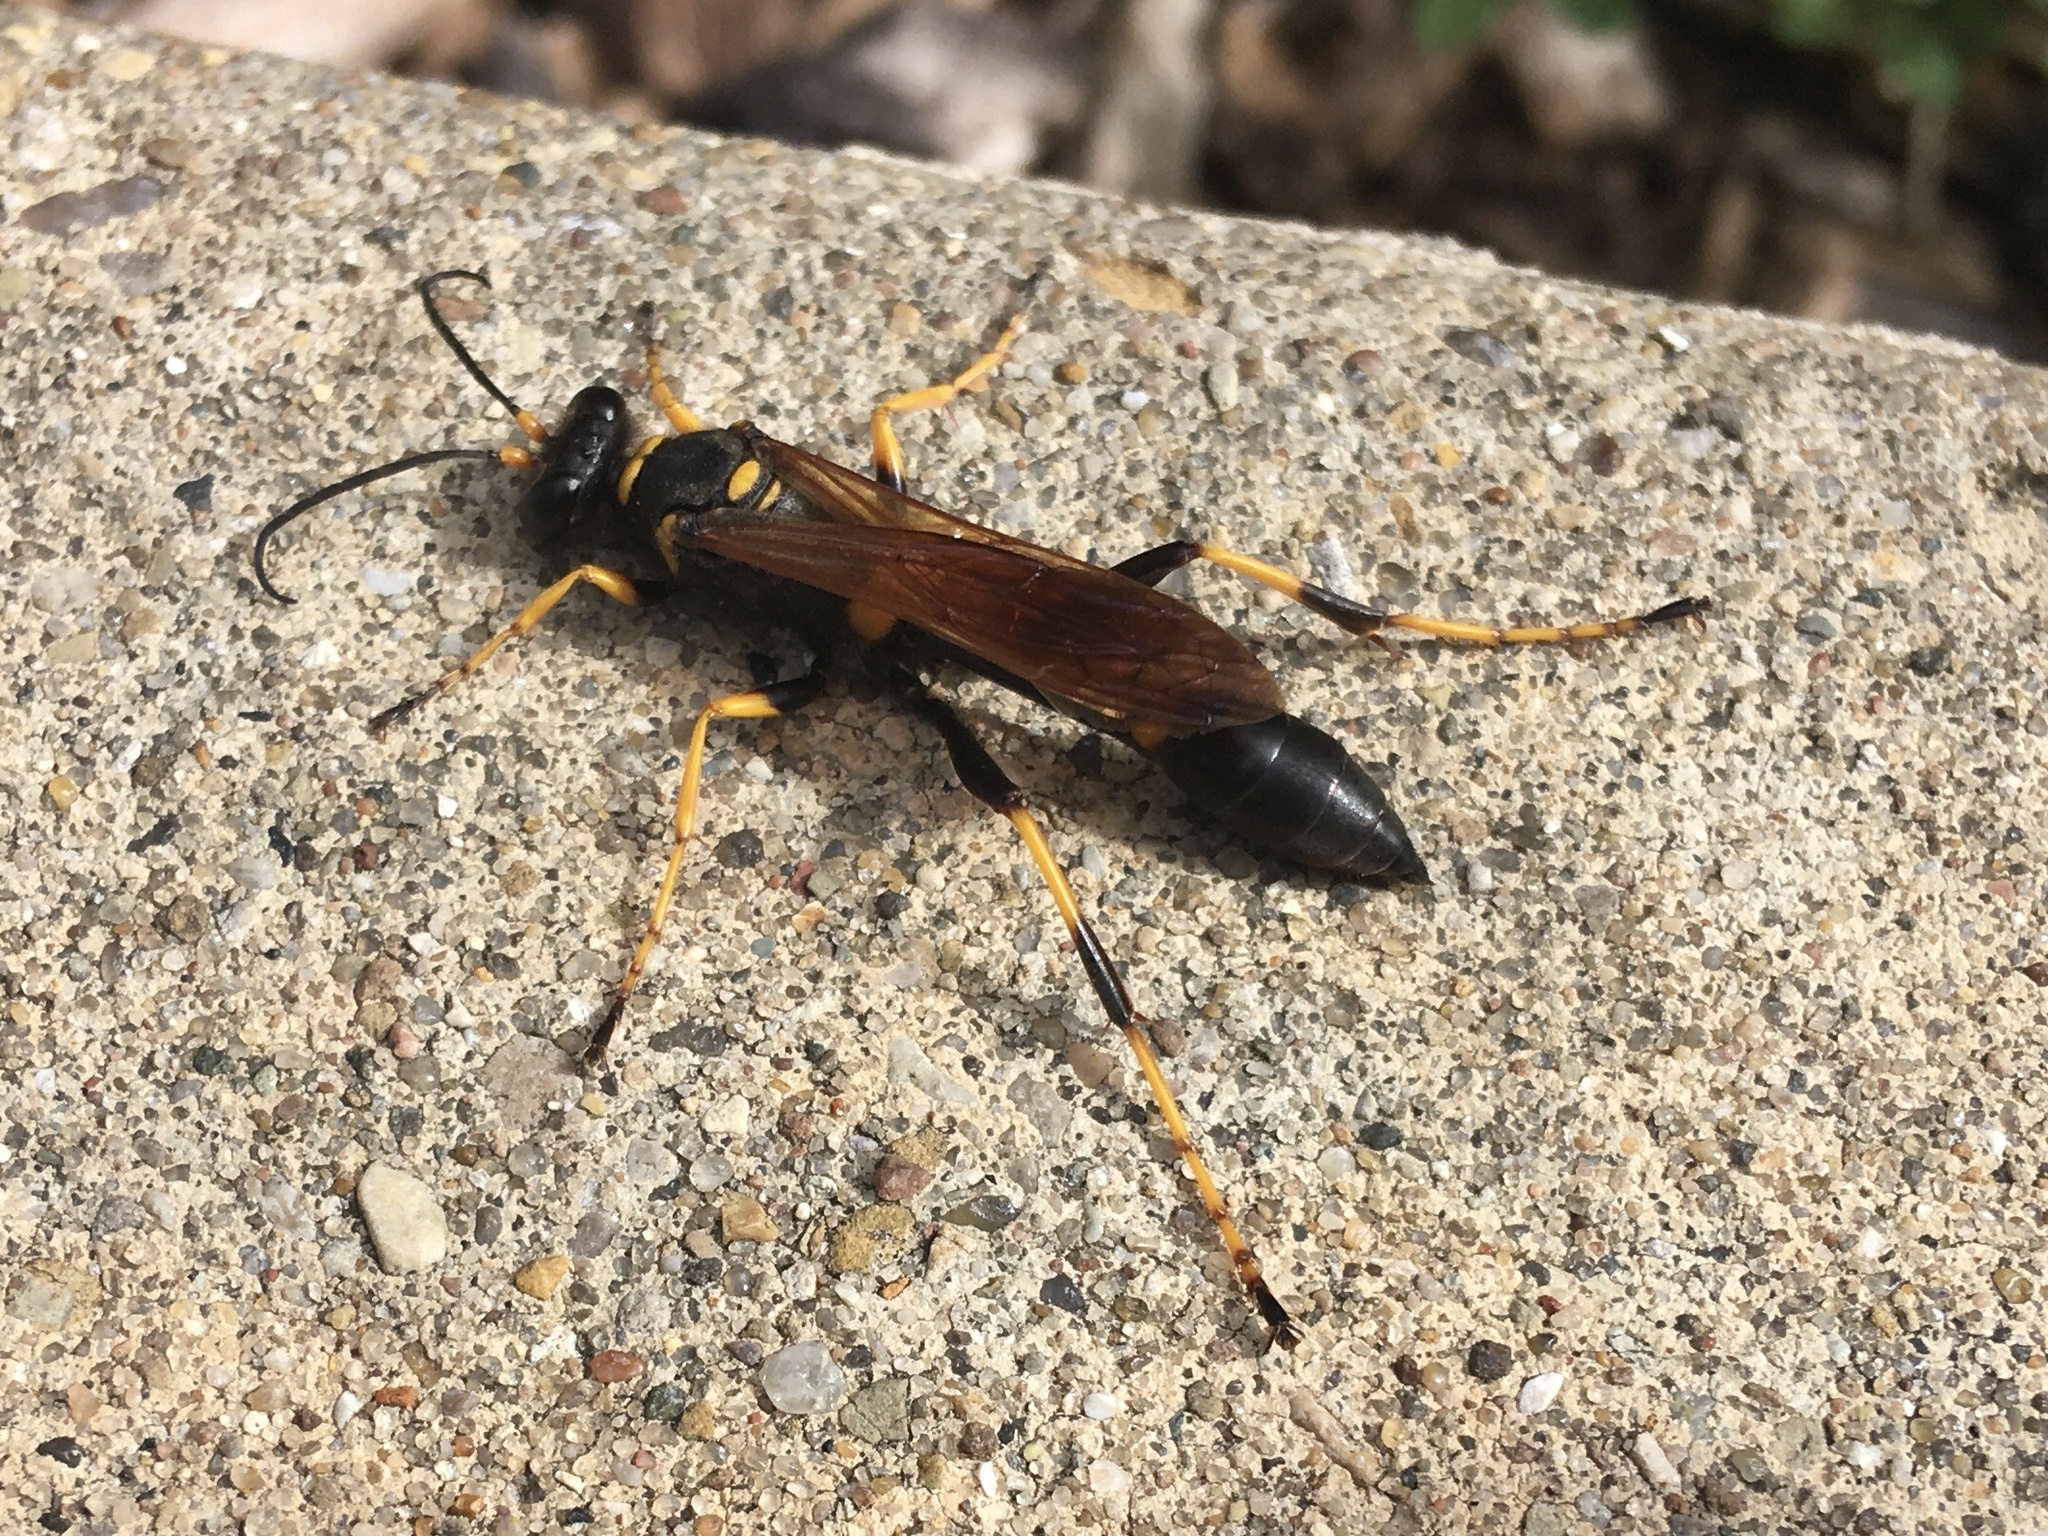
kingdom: Animalia
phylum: Arthropoda
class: Insecta
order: Hymenoptera
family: Sphecidae
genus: Sceliphron
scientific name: Sceliphron caementarium
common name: Mud dauber
